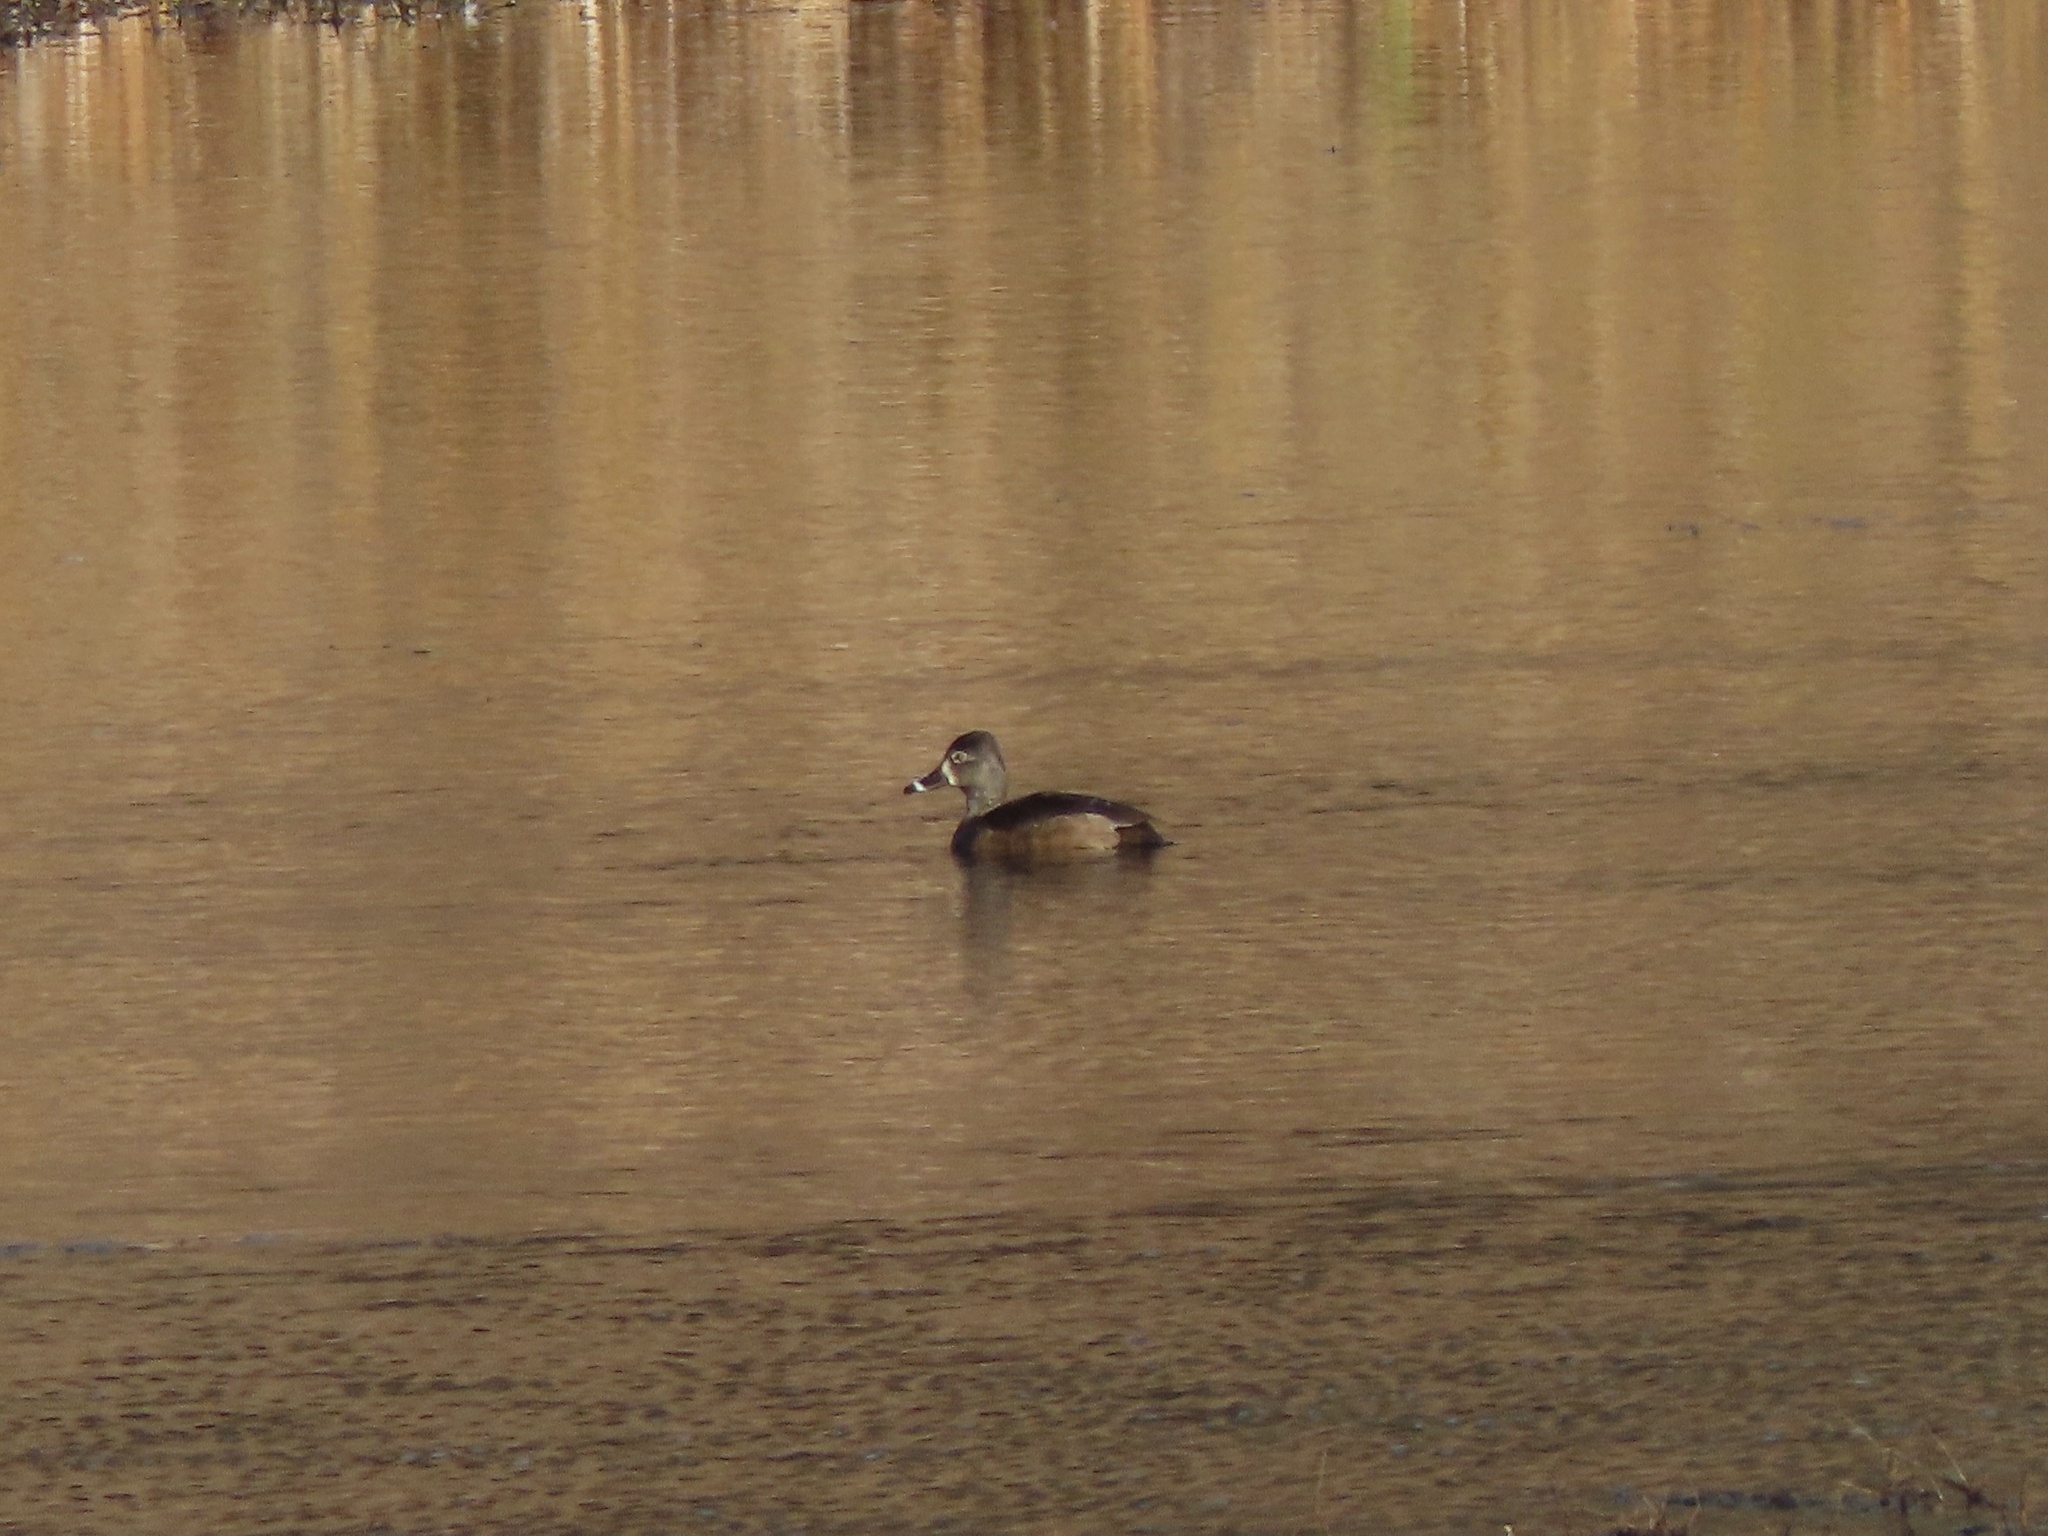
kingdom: Animalia
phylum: Chordata
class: Aves
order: Anseriformes
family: Anatidae
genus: Aythya
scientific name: Aythya collaris
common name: Ring-necked duck
